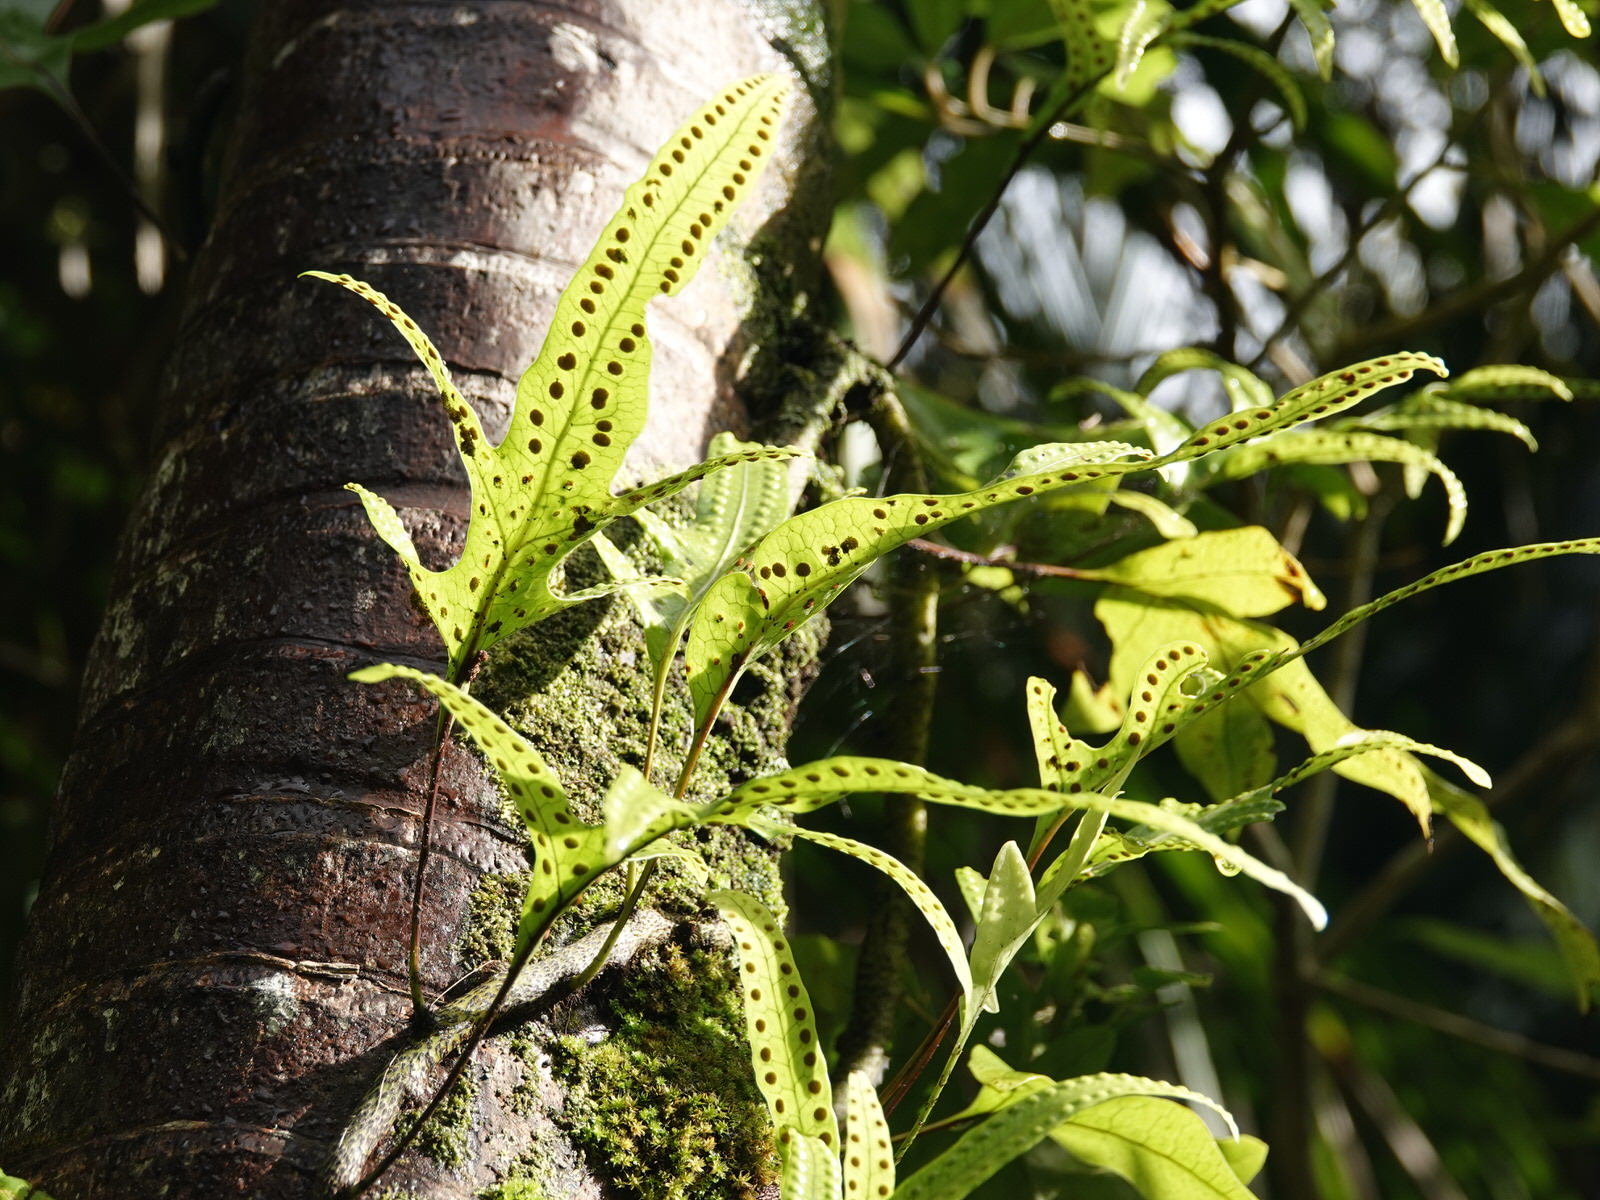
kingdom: Plantae
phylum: Tracheophyta
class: Polypodiopsida
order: Polypodiales
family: Polypodiaceae
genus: Lecanopteris
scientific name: Lecanopteris pustulata
